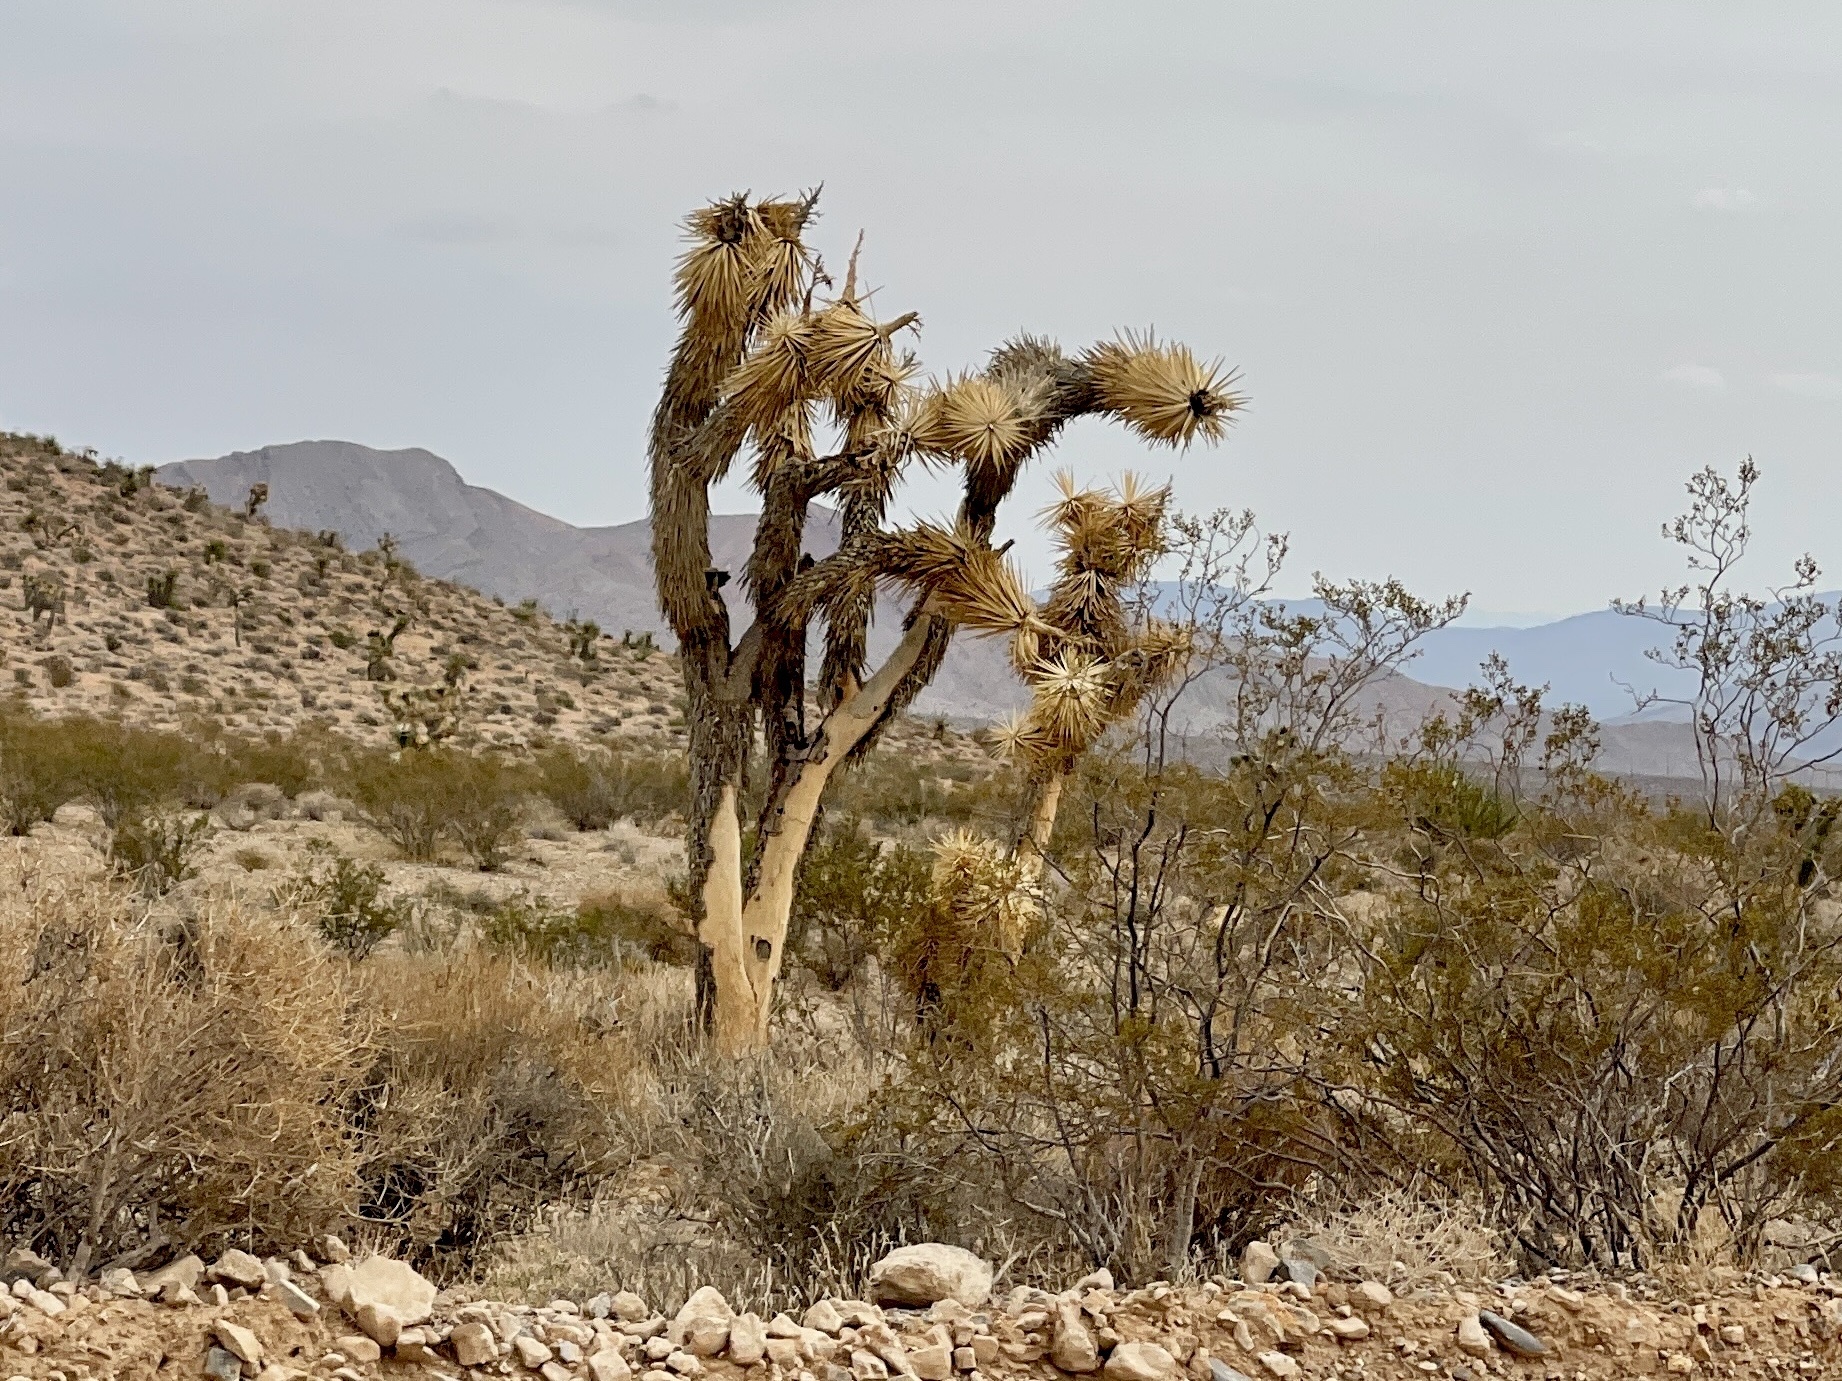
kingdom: Plantae
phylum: Tracheophyta
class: Liliopsida
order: Asparagales
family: Asparagaceae
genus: Yucca
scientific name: Yucca brevifolia
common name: Joshua tree
